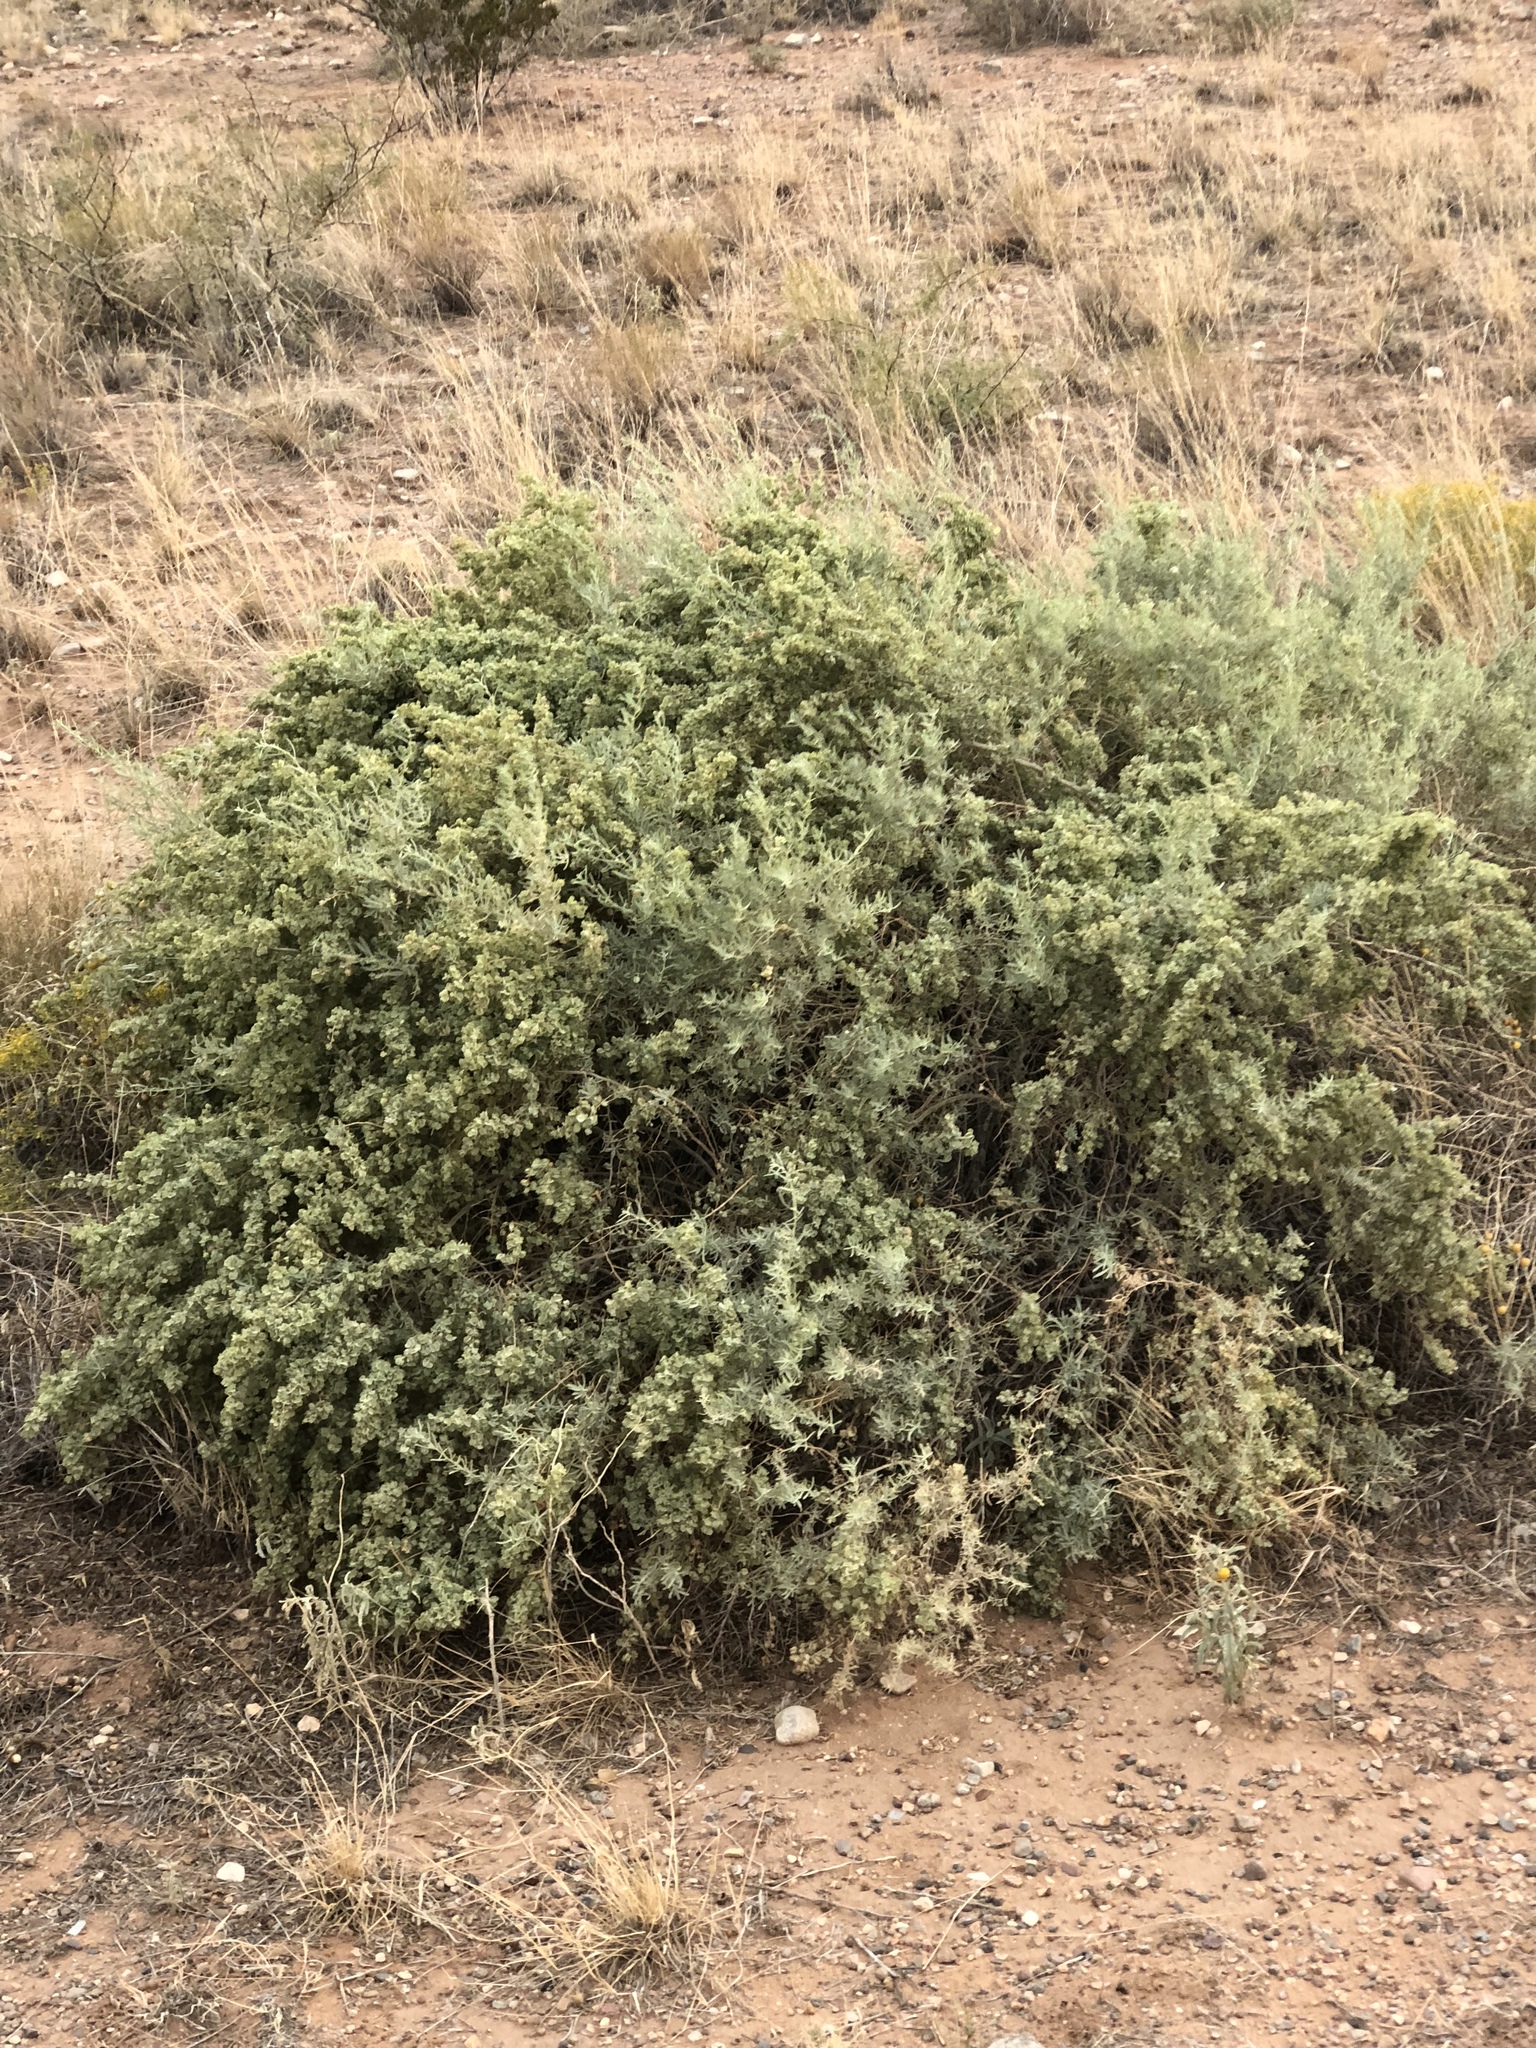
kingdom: Plantae
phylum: Tracheophyta
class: Magnoliopsida
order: Caryophyllales
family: Amaranthaceae
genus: Atriplex
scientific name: Atriplex canescens
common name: Four-wing saltbush
